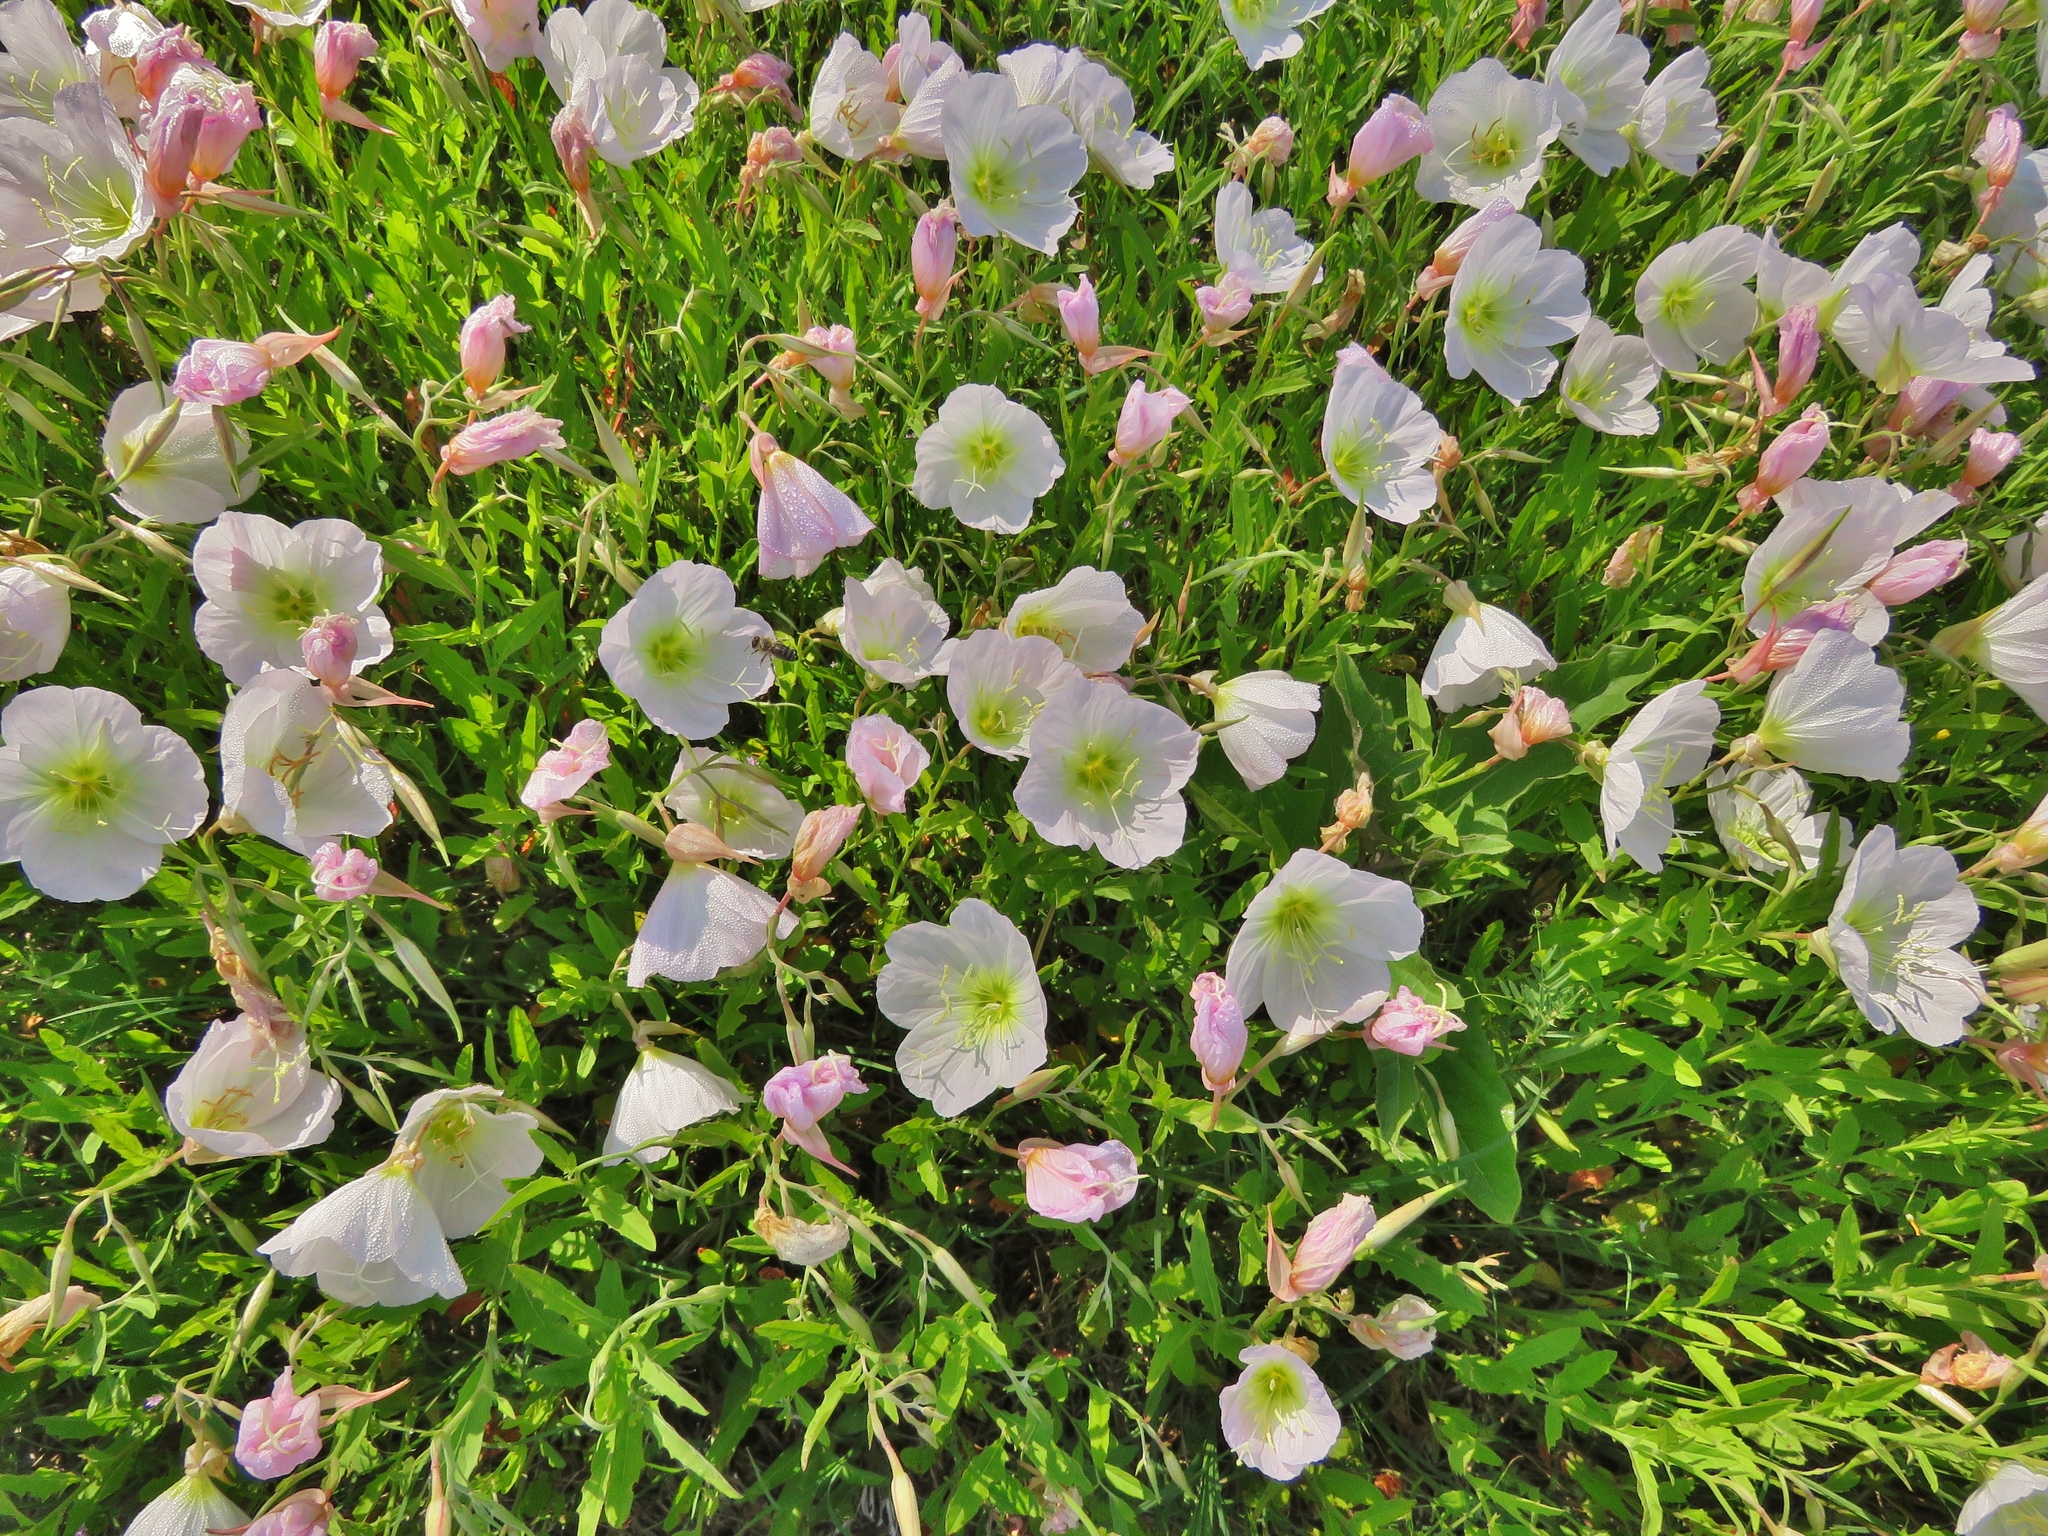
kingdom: Plantae
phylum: Tracheophyta
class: Magnoliopsida
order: Myrtales
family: Onagraceae
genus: Oenothera
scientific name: Oenothera speciosa
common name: White evening-primrose
